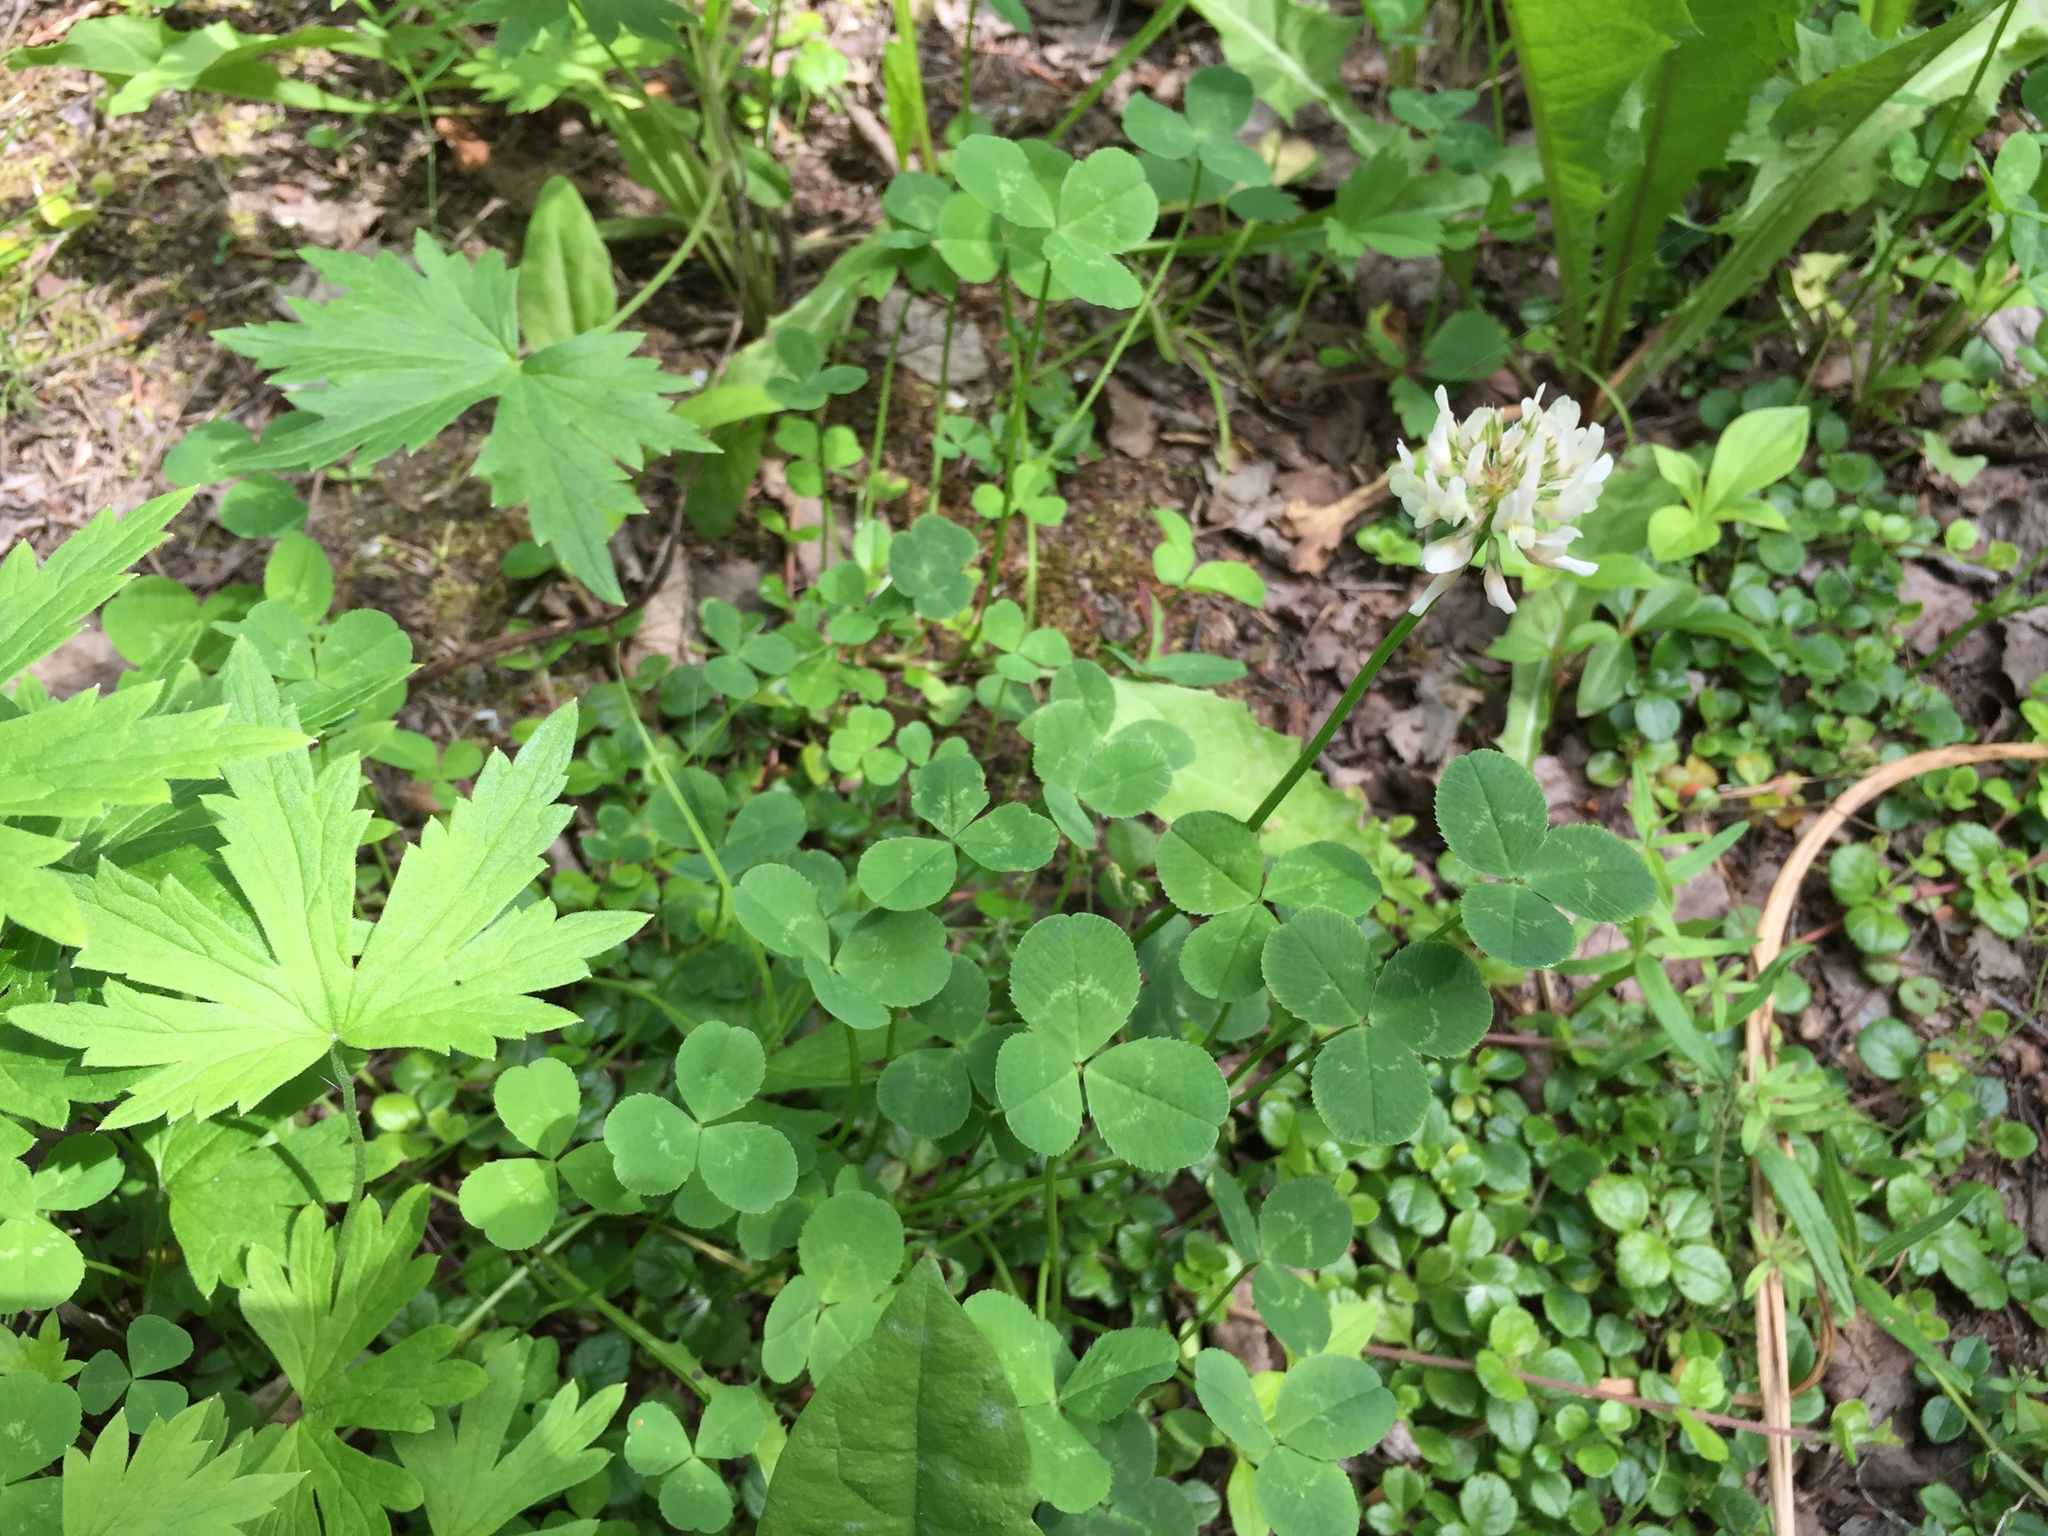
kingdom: Plantae
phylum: Tracheophyta
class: Magnoliopsida
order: Fabales
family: Fabaceae
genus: Trifolium
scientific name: Trifolium repens
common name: White clover
